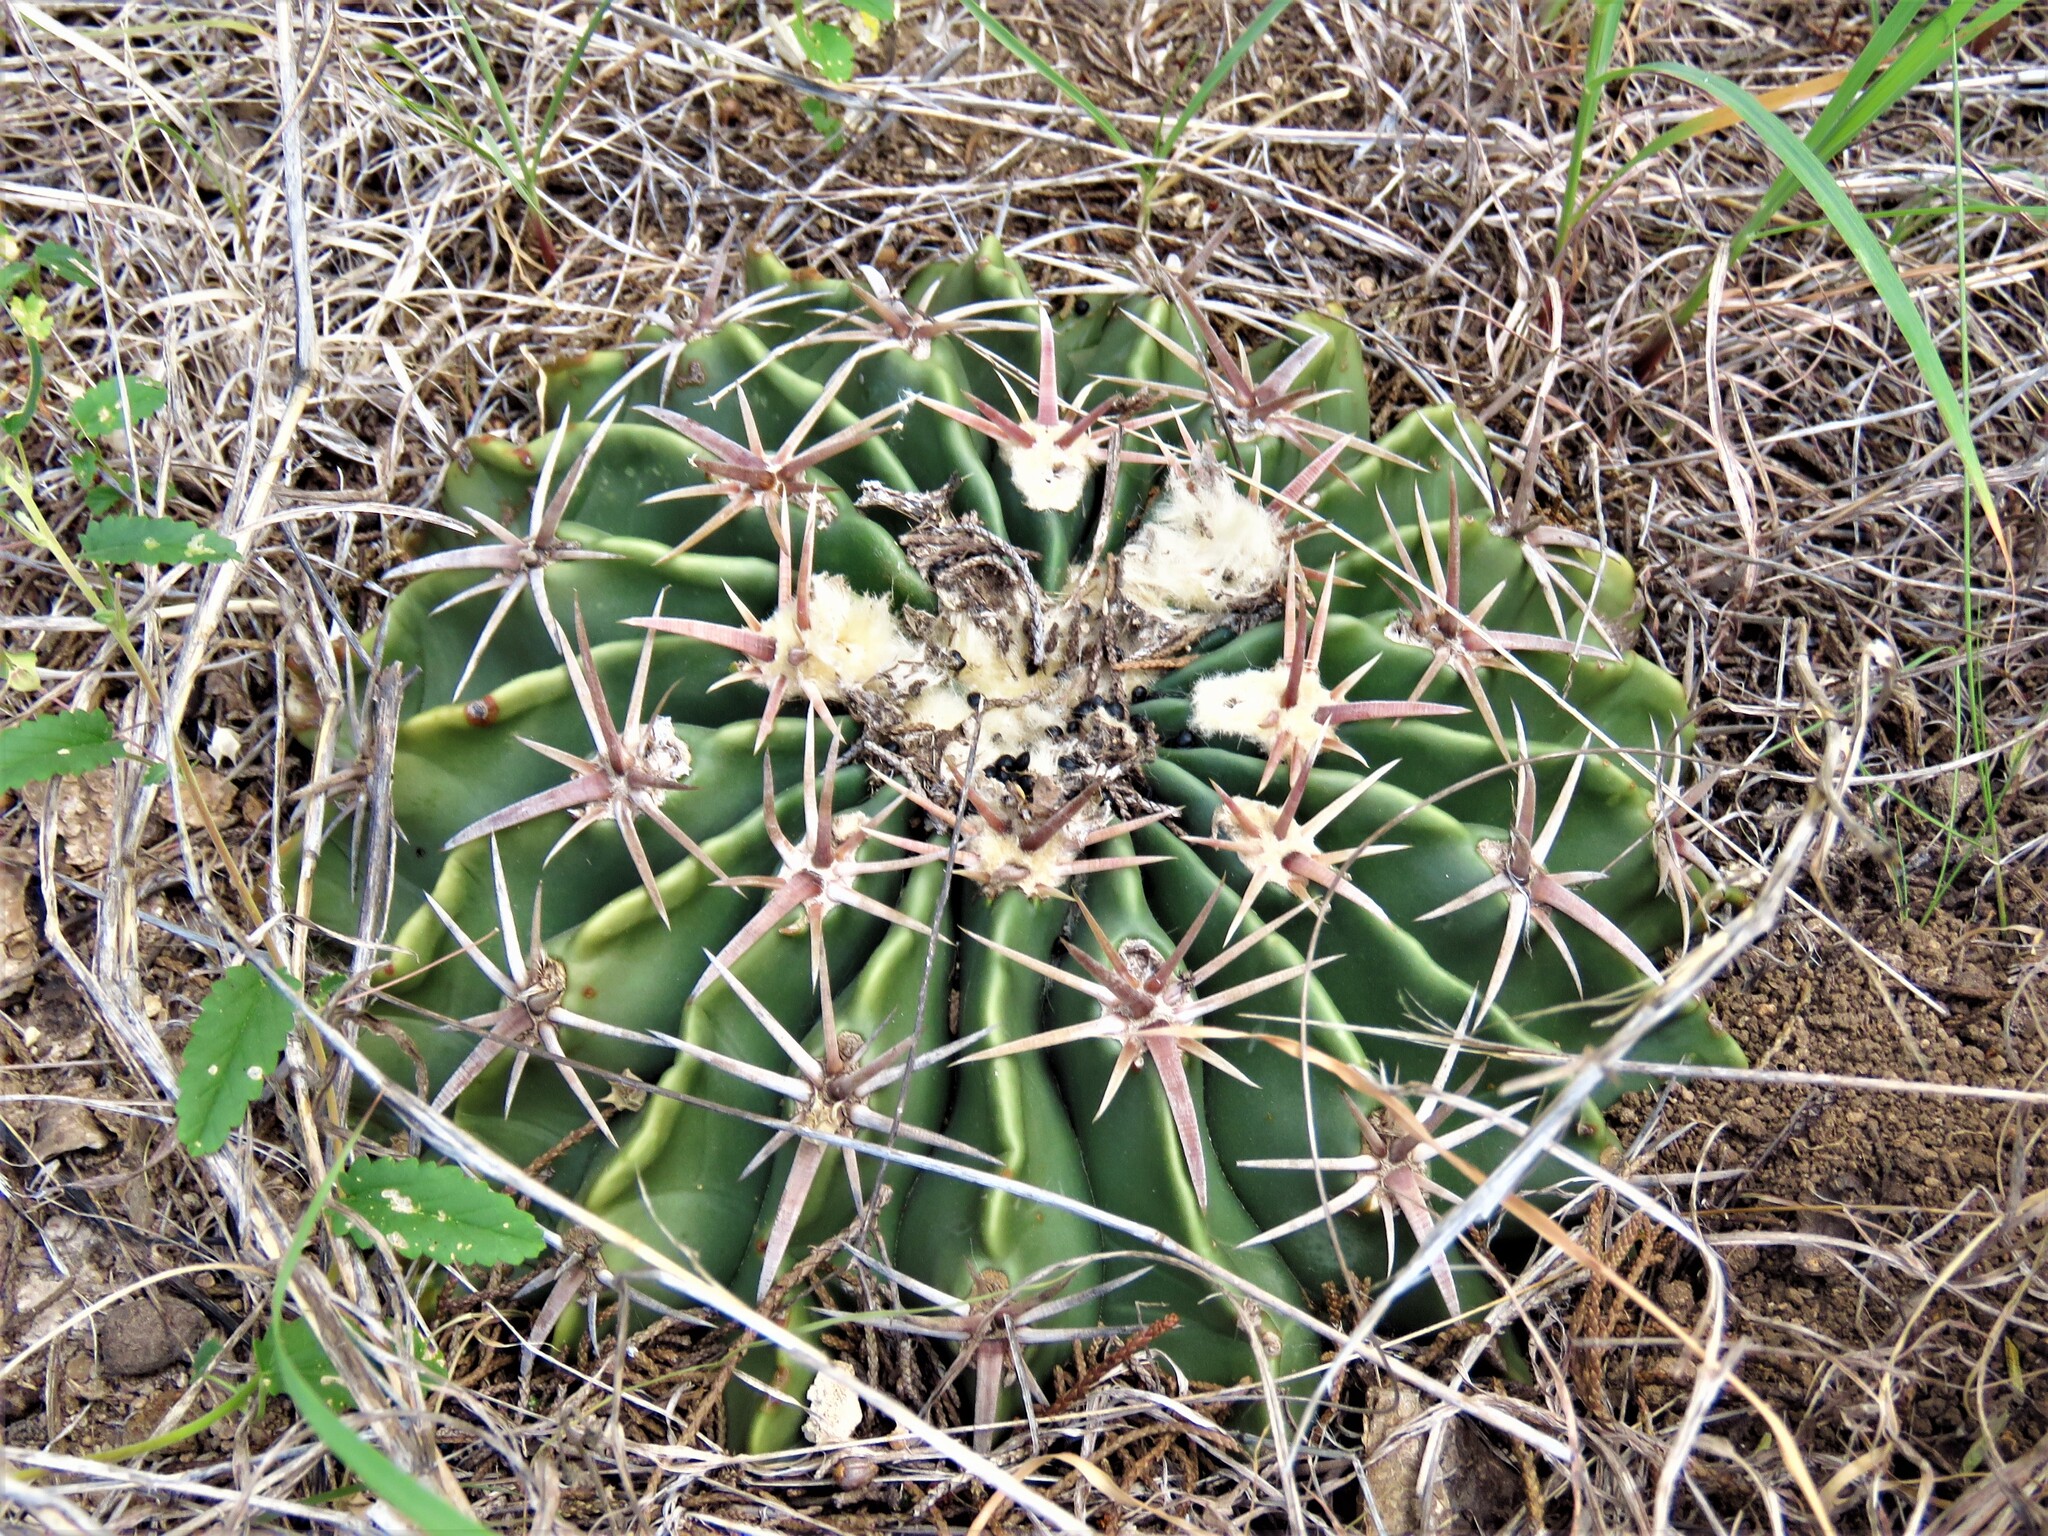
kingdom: Plantae
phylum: Tracheophyta
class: Magnoliopsida
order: Caryophyllales
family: Cactaceae
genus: Echinocactus
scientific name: Echinocactus texensis
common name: Devil's pincushion
